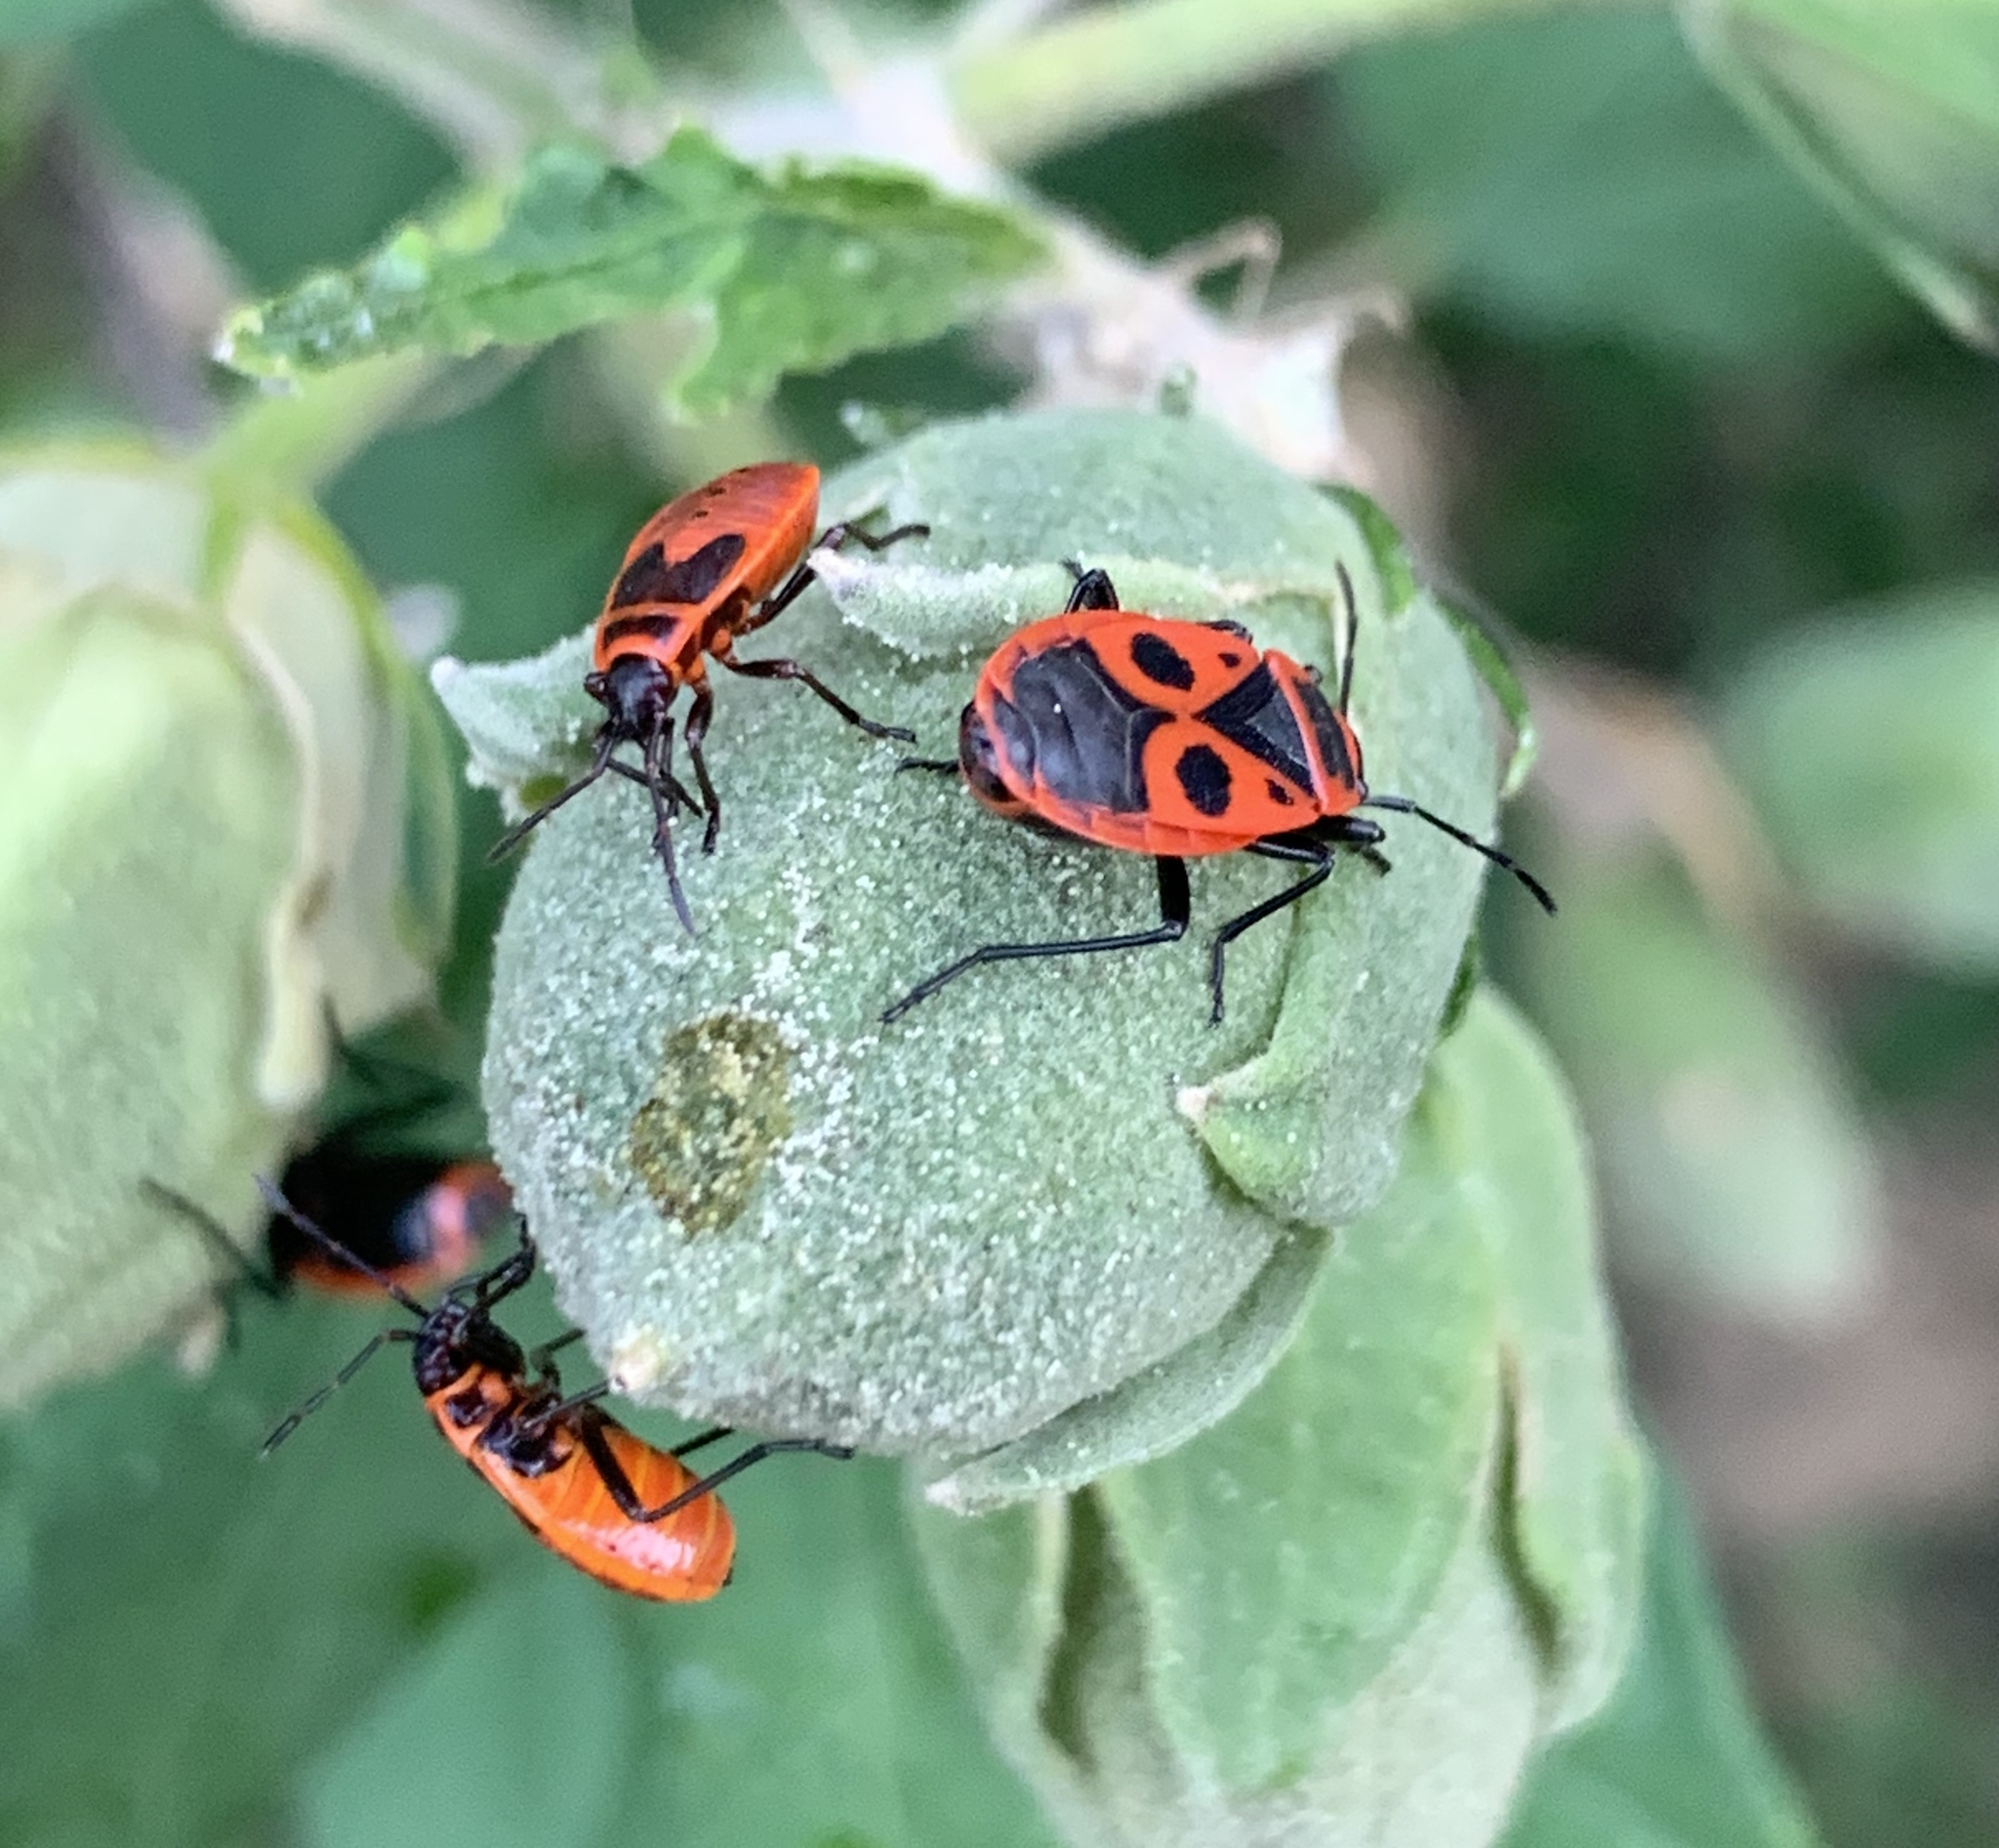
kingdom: Animalia
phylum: Arthropoda
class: Insecta
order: Hemiptera
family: Pyrrhocoridae
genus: Pyrrhocoris
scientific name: Pyrrhocoris apterus
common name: Firebug
